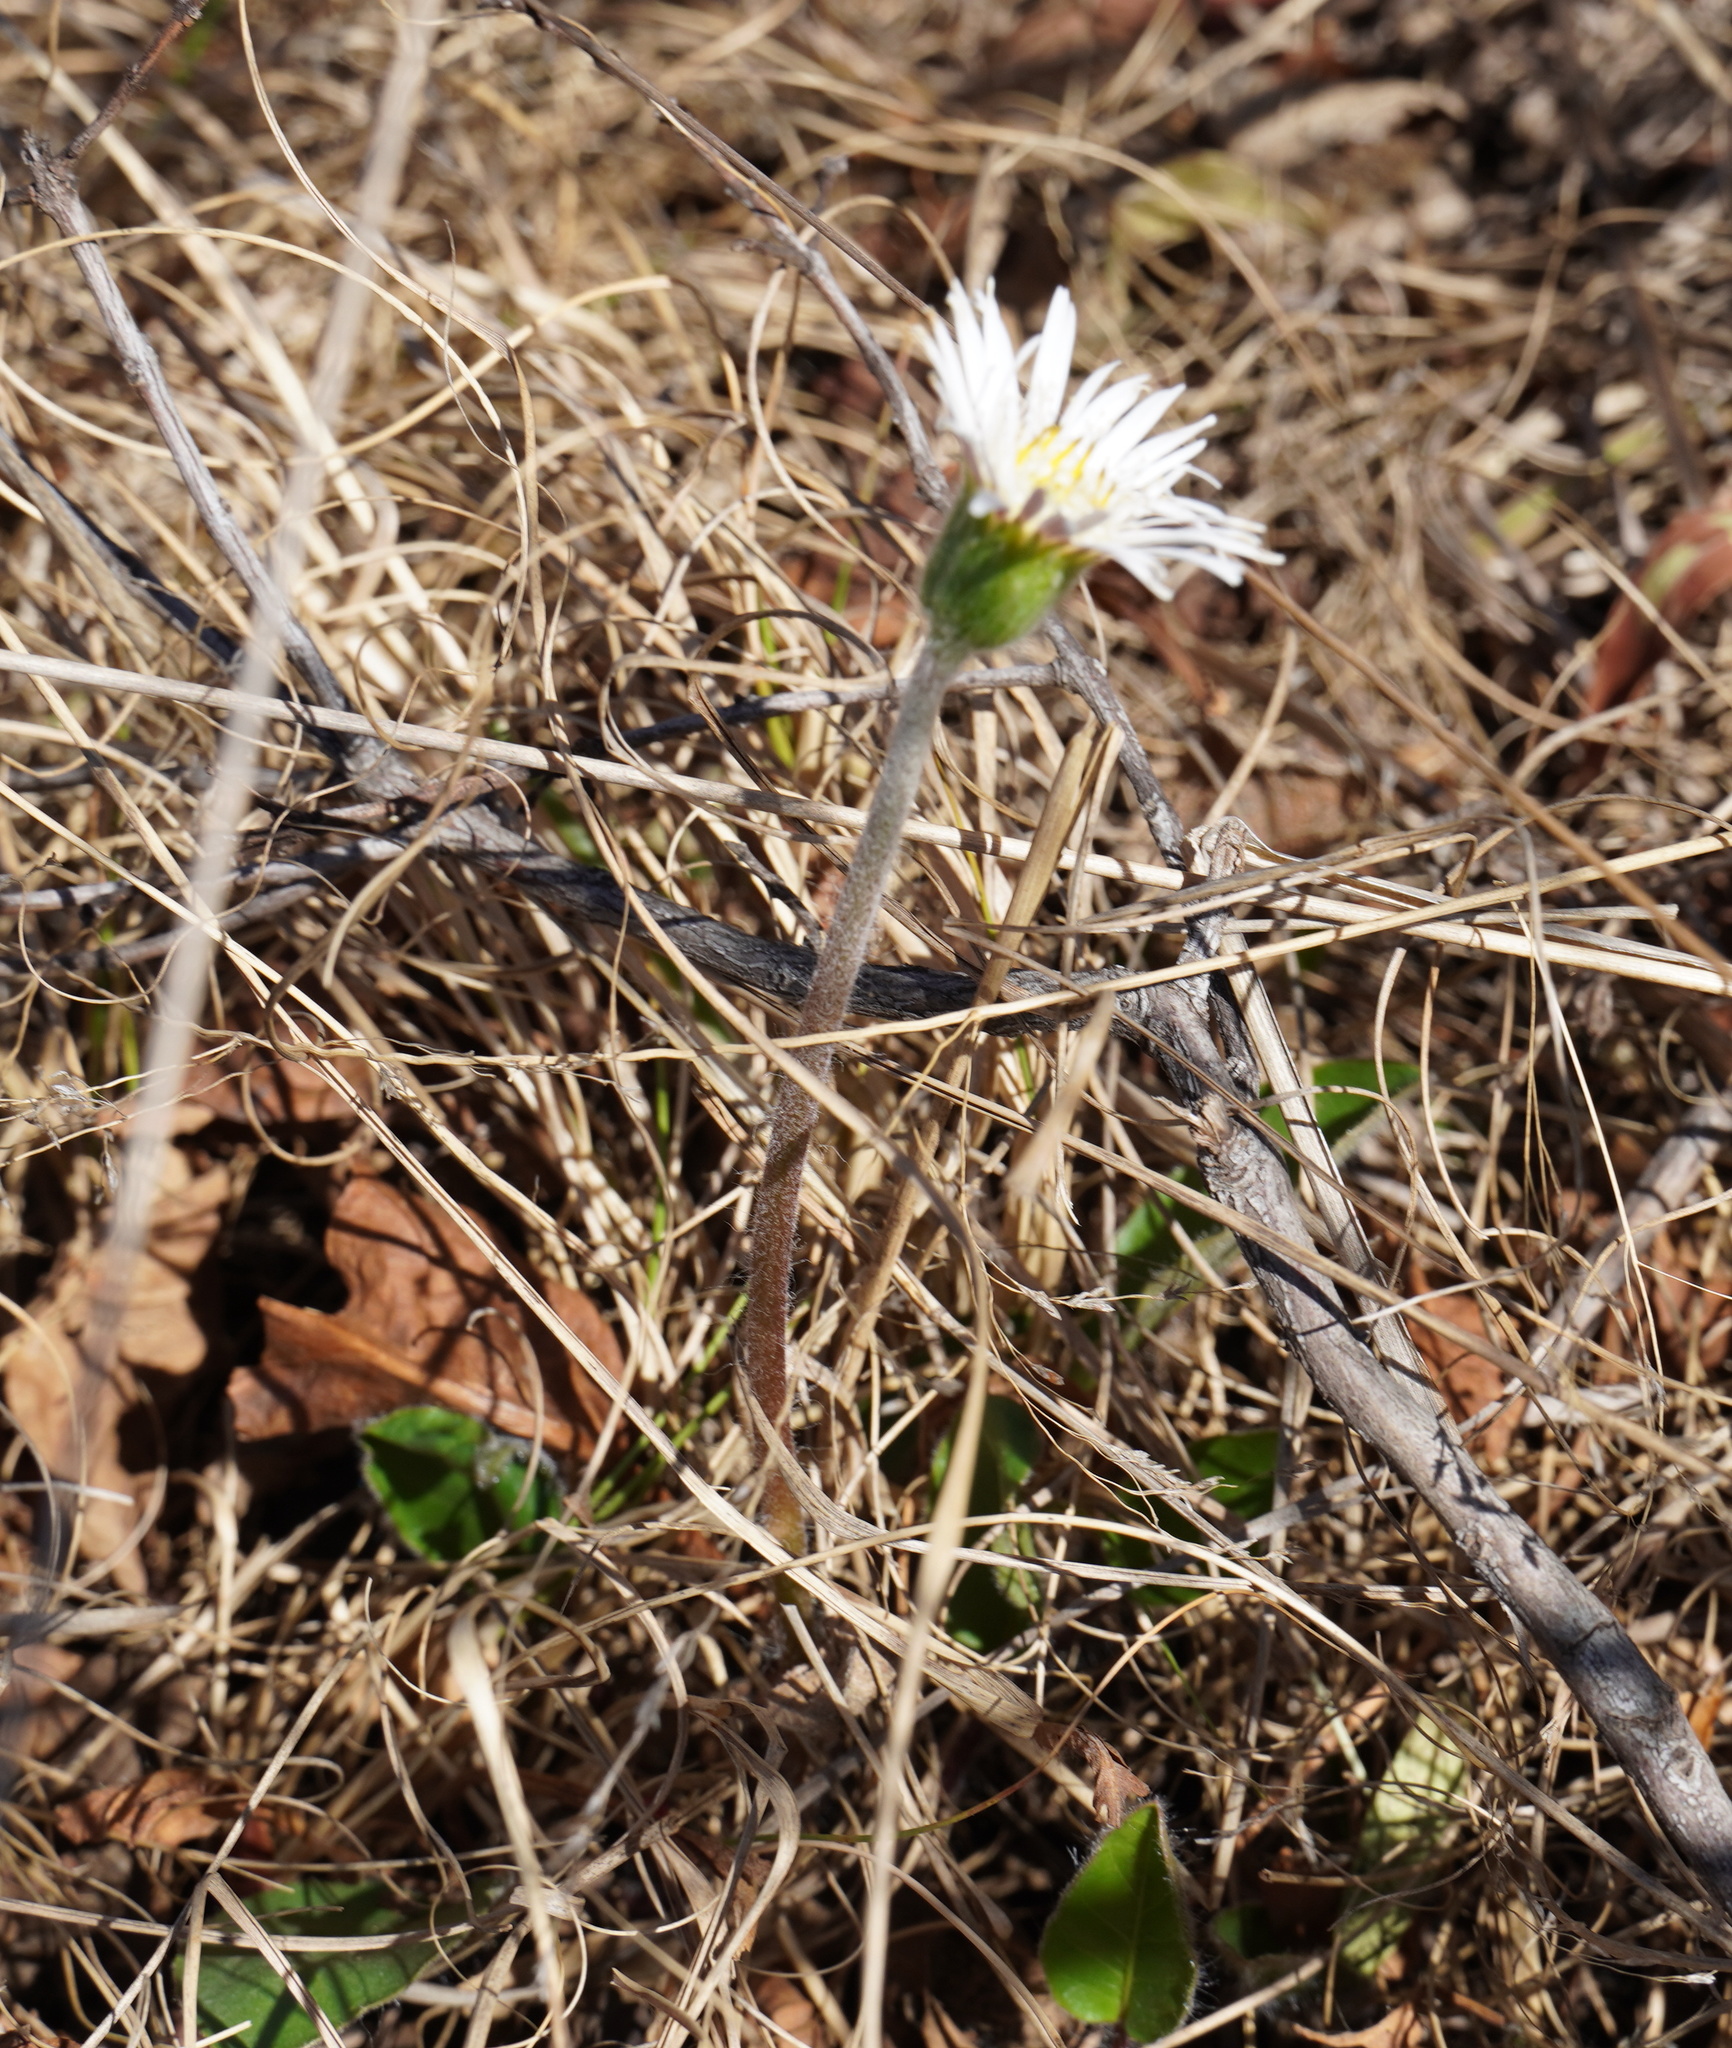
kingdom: Plantae
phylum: Tracheophyta
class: Magnoliopsida
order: Asterales
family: Asteraceae
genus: Gerbera
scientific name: Gerbera viridifolia
